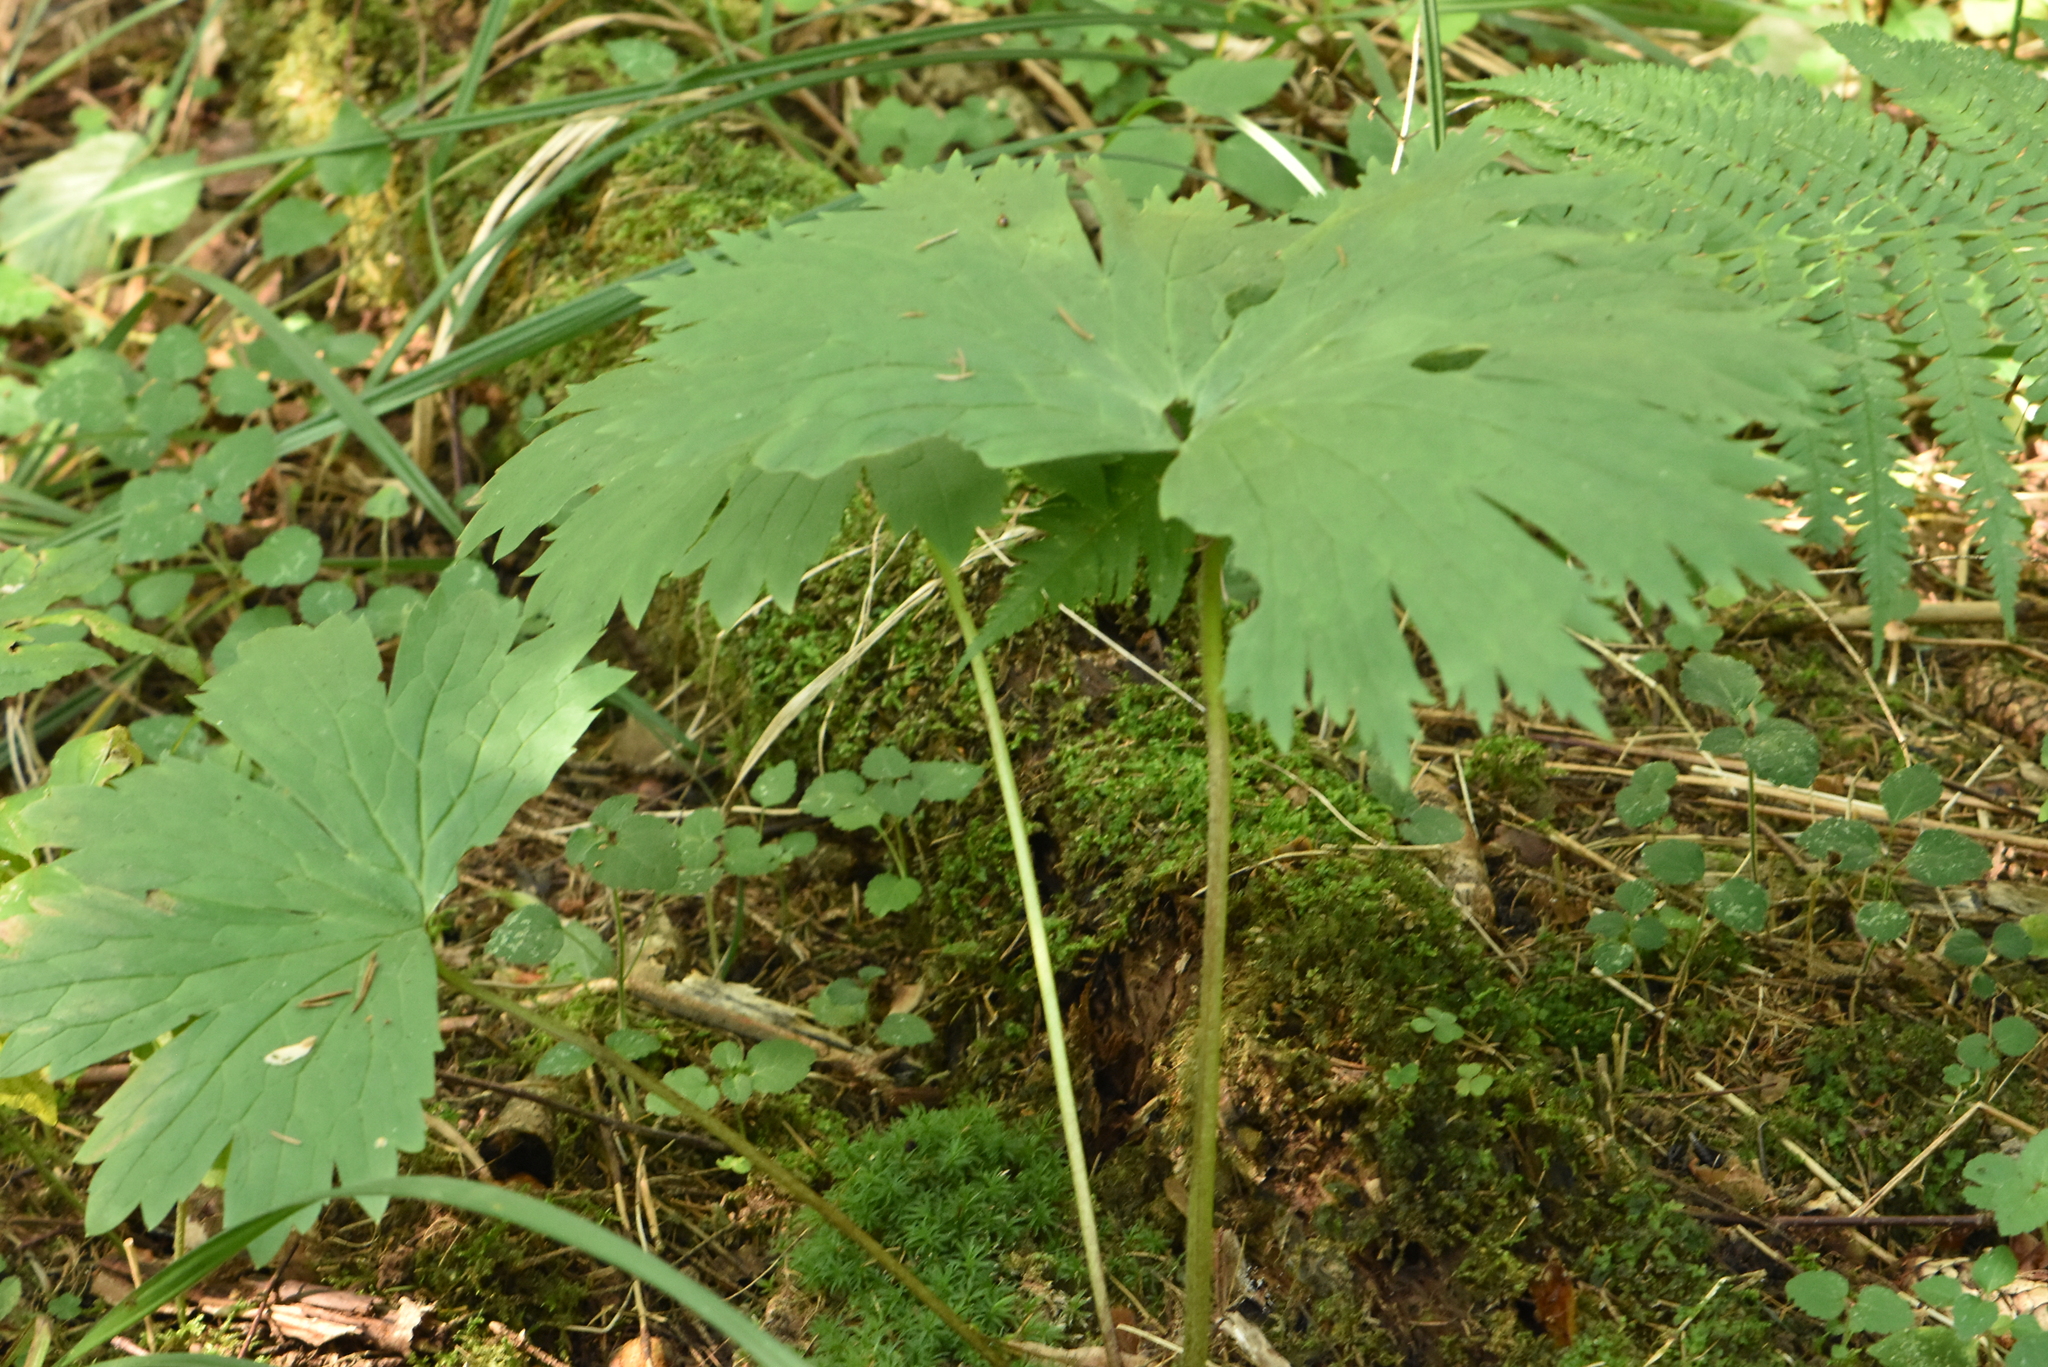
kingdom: Plantae
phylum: Tracheophyta
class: Magnoliopsida
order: Ranunculales
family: Ranunculaceae
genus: Aconitum
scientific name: Aconitum septentrionale
